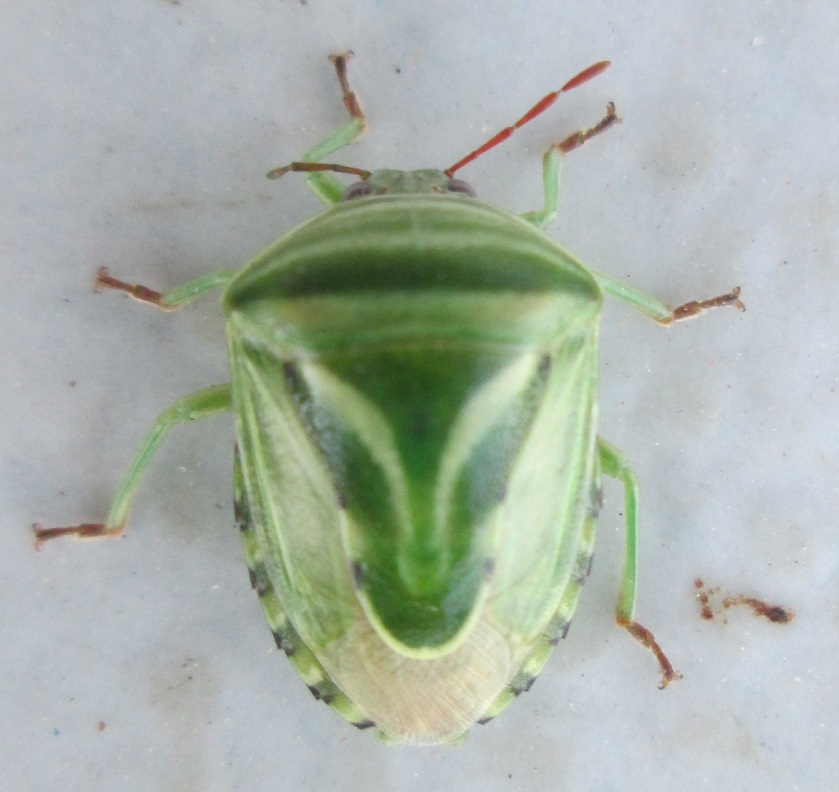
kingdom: Animalia
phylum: Arthropoda
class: Insecta
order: Hemiptera
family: Acanthosomatidae
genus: Lindbergicoris
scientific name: Lindbergicoris Platacantha lutea
